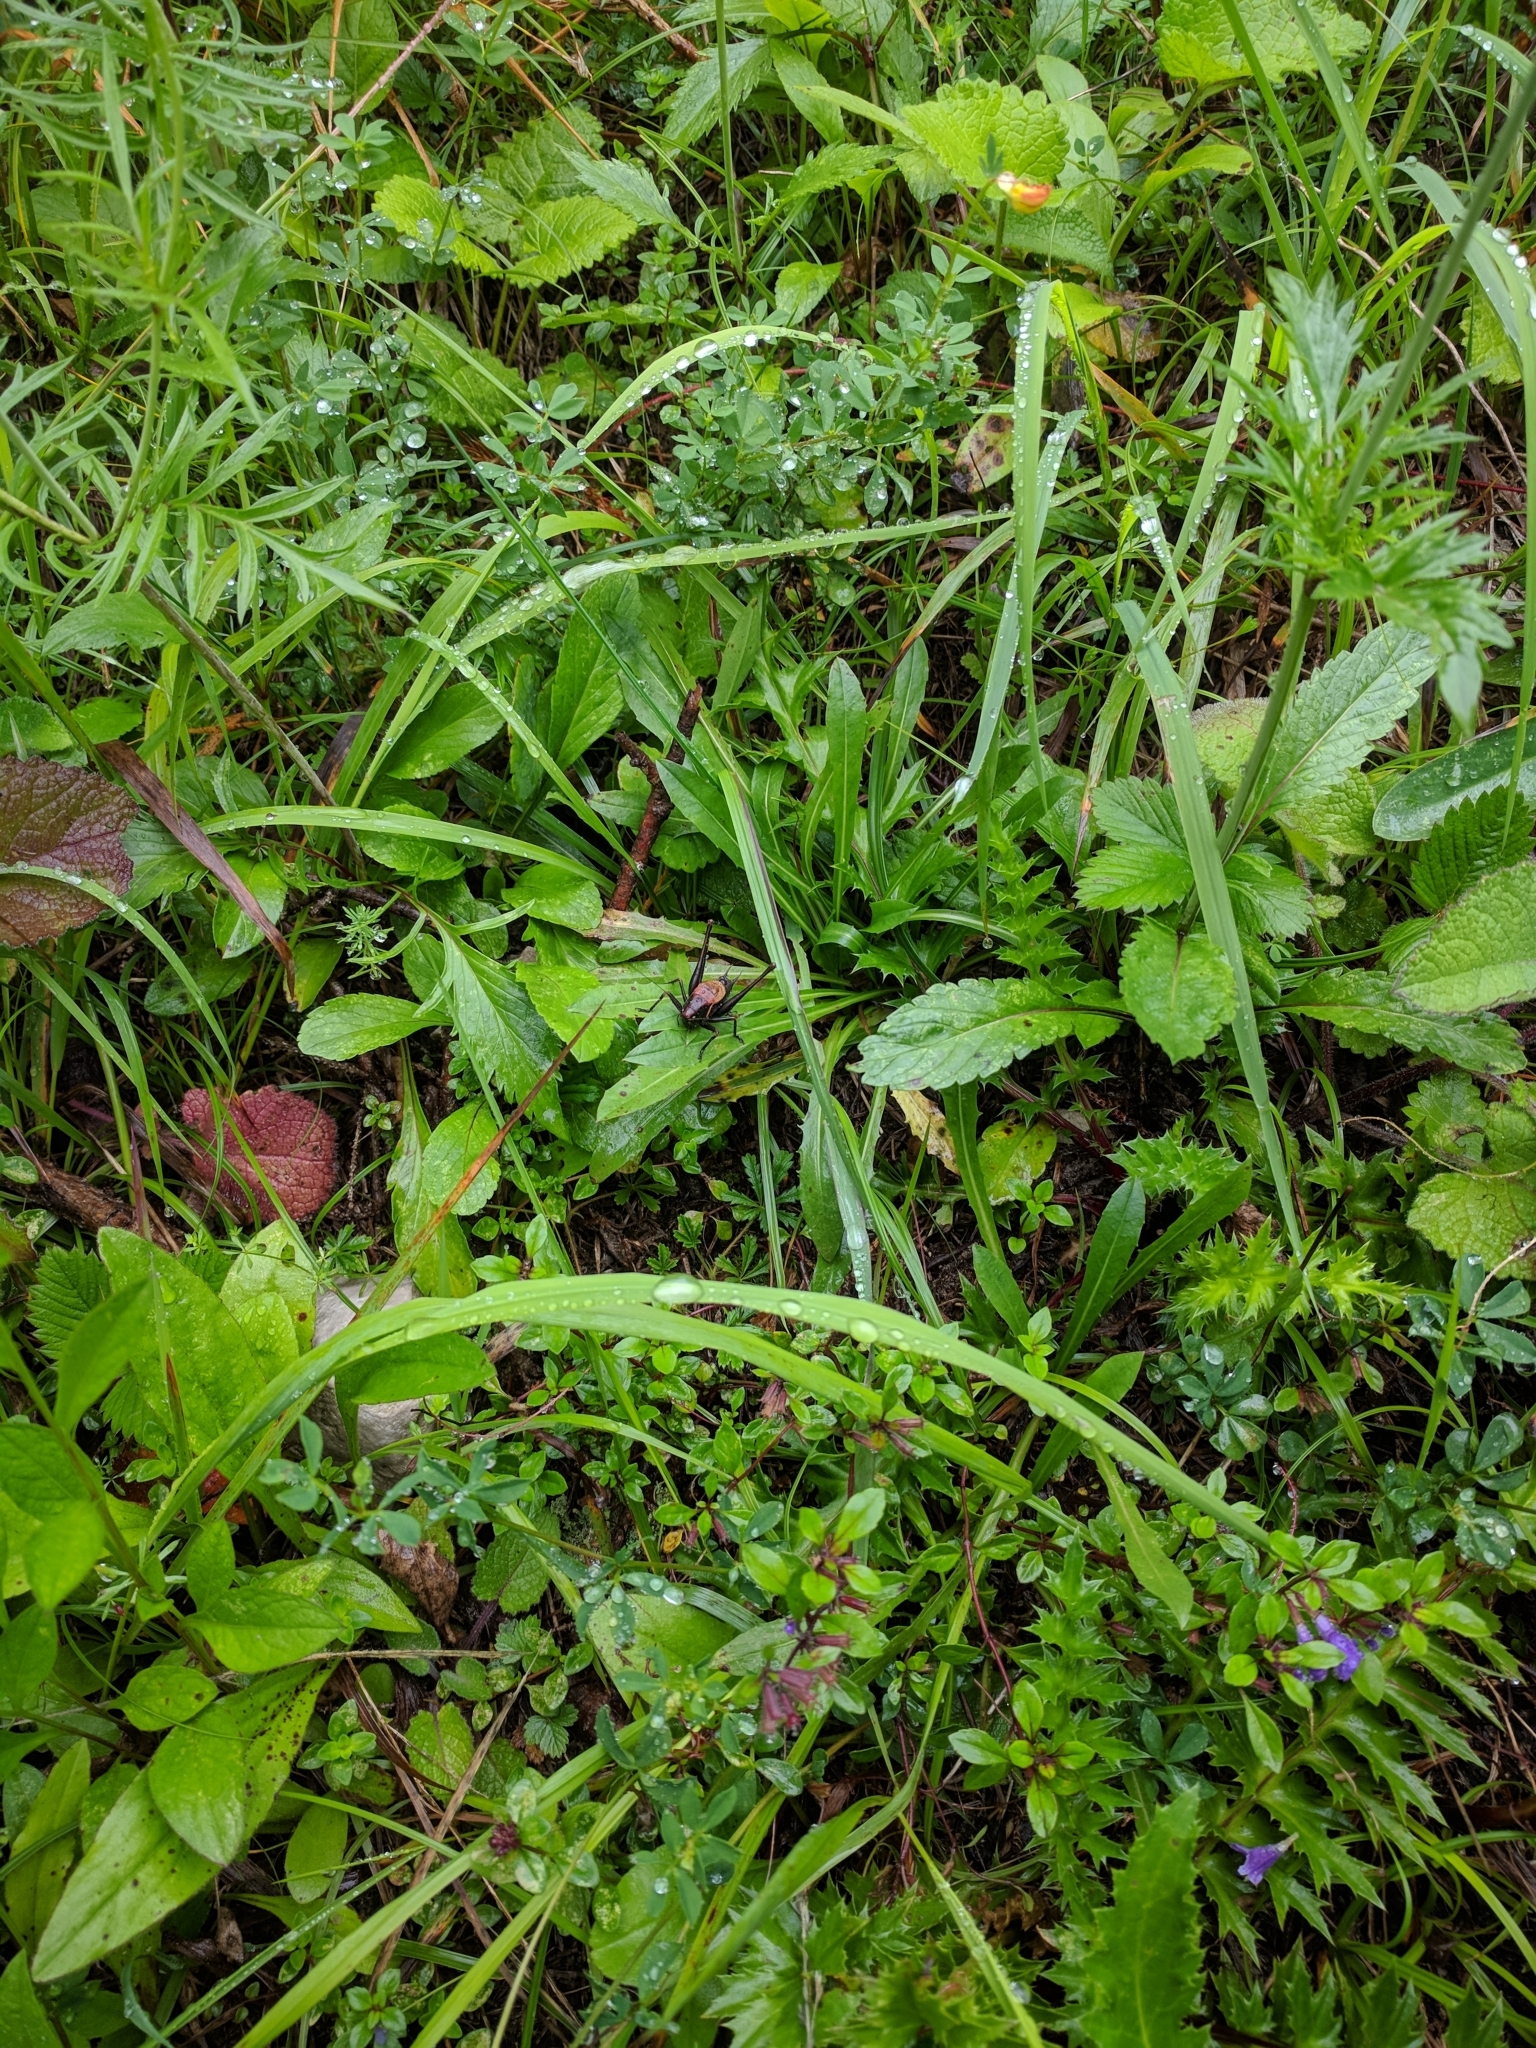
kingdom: Animalia
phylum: Arthropoda
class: Insecta
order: Orthoptera
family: Tettigoniidae
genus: Pholidoptera
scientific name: Pholidoptera aptera
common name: Alpine dark bush-cricket
